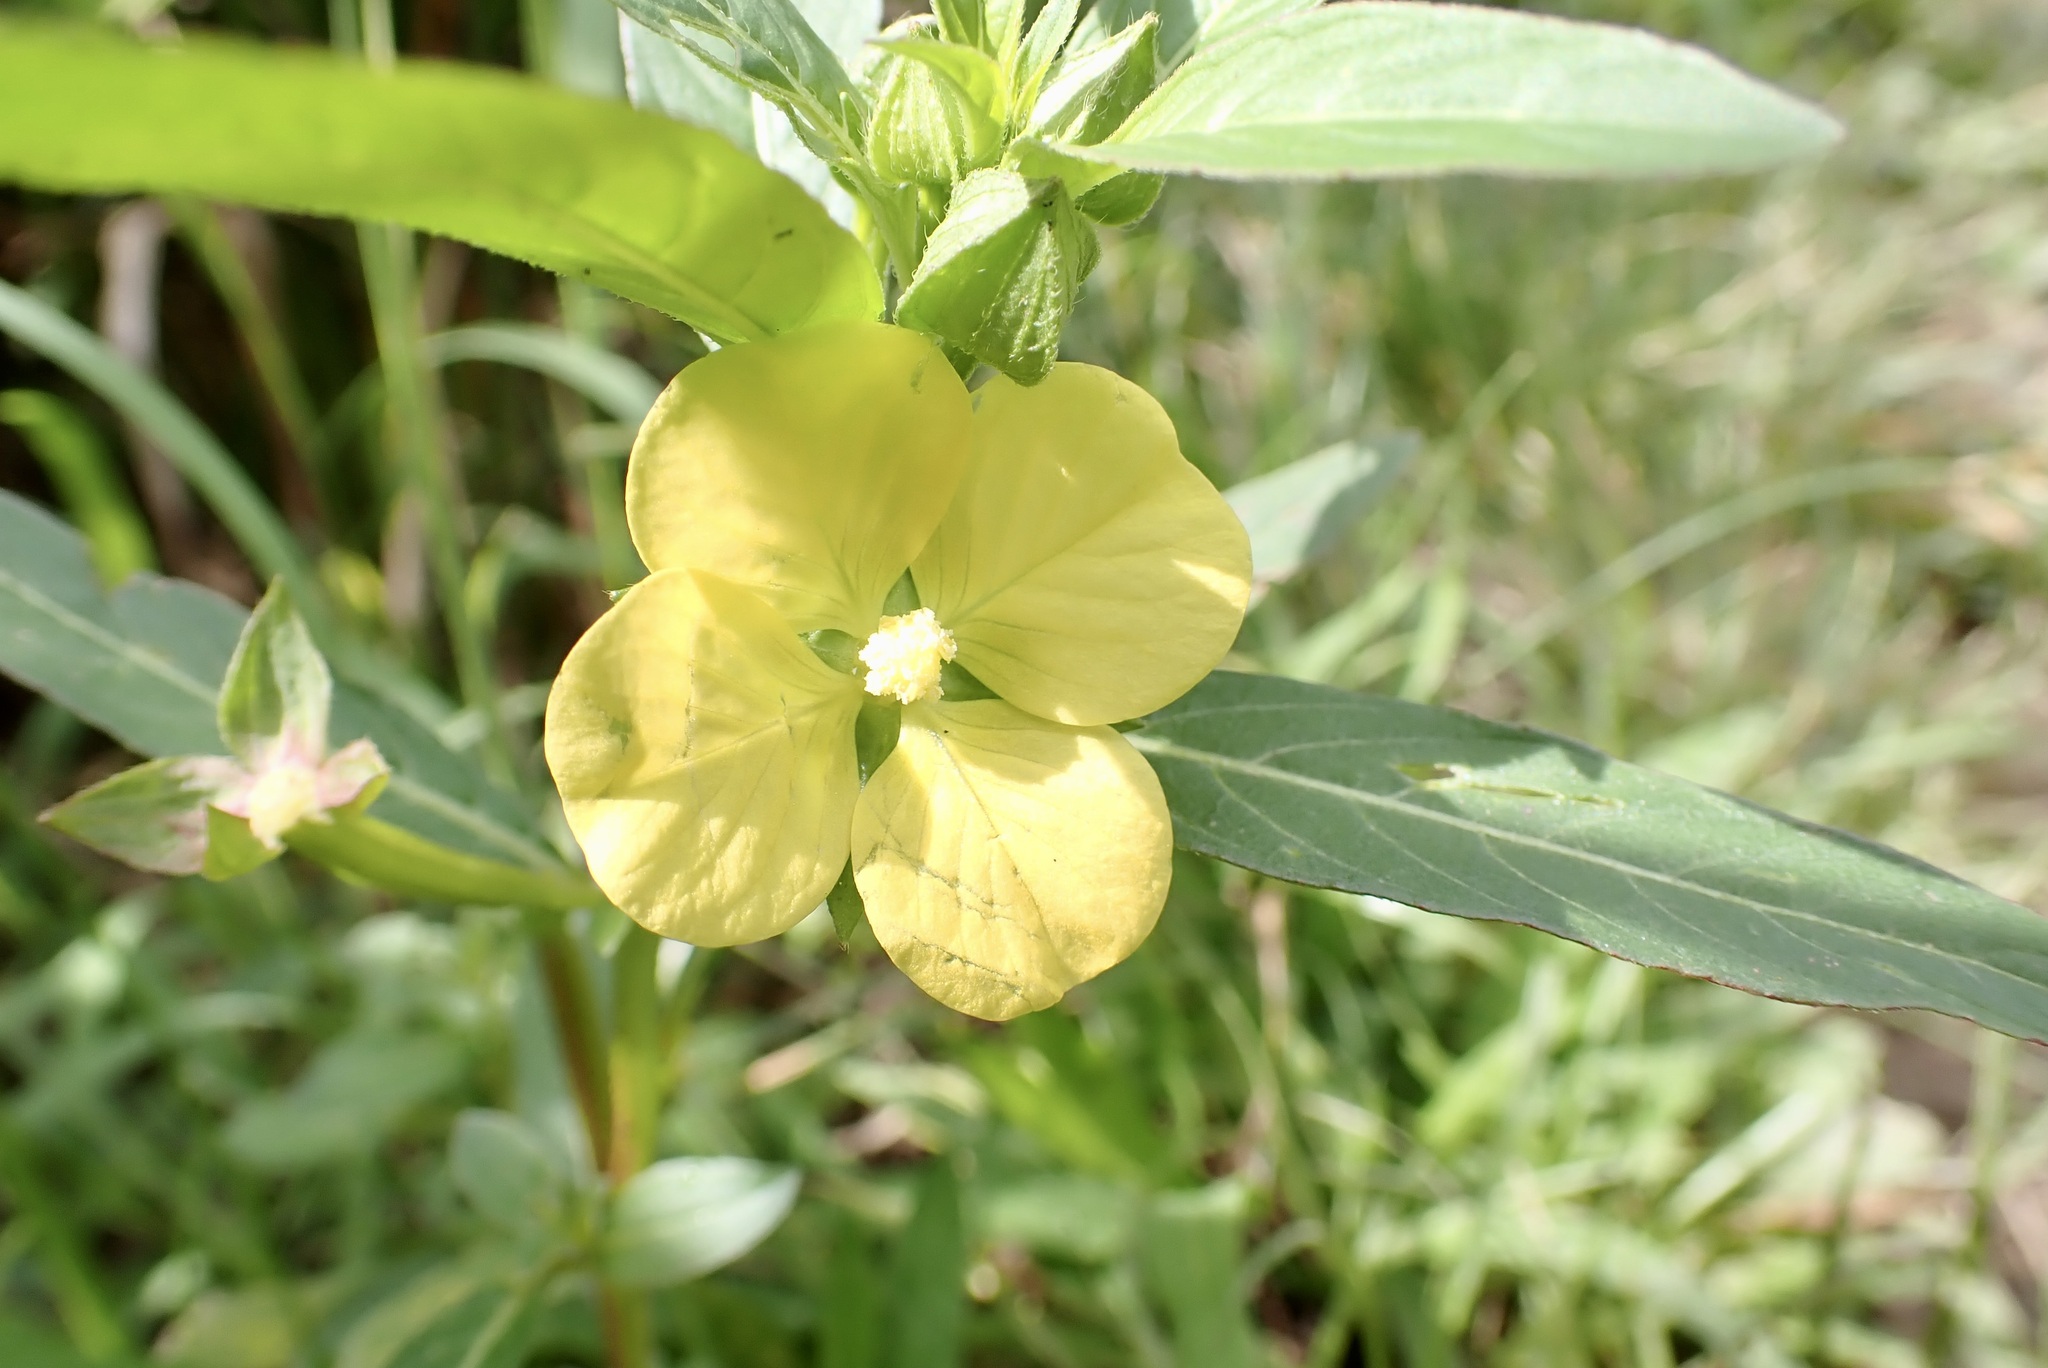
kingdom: Plantae
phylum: Tracheophyta
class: Magnoliopsida
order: Myrtales
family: Onagraceae
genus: Ludwigia
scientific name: Ludwigia octovalvis
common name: Water-primrose
